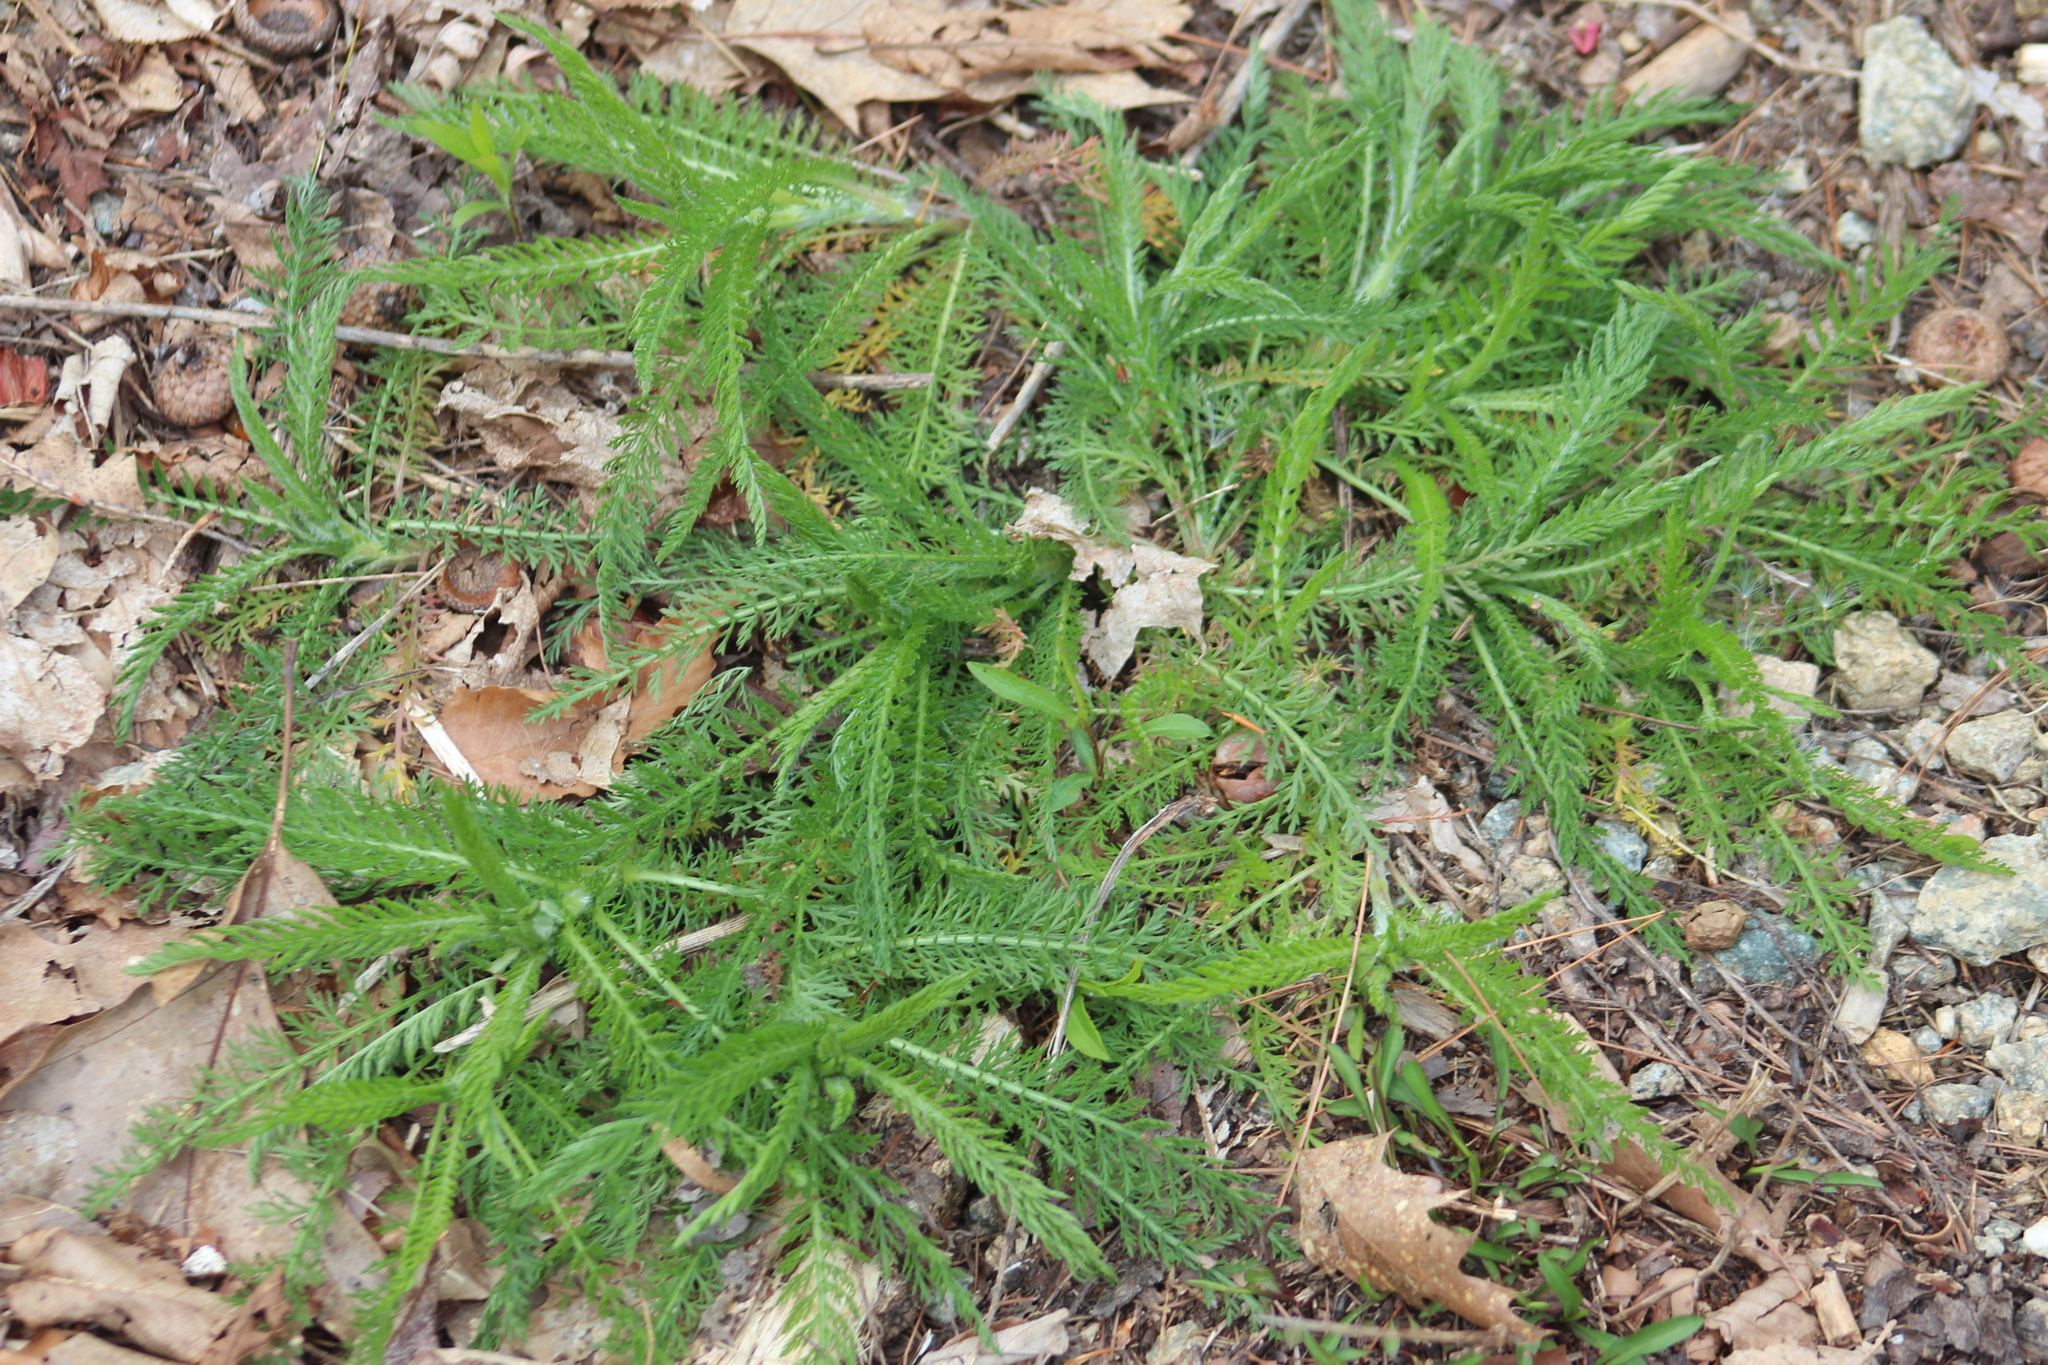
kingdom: Plantae
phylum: Tracheophyta
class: Magnoliopsida
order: Asterales
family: Asteraceae
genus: Achillea
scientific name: Achillea millefolium
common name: Yarrow
